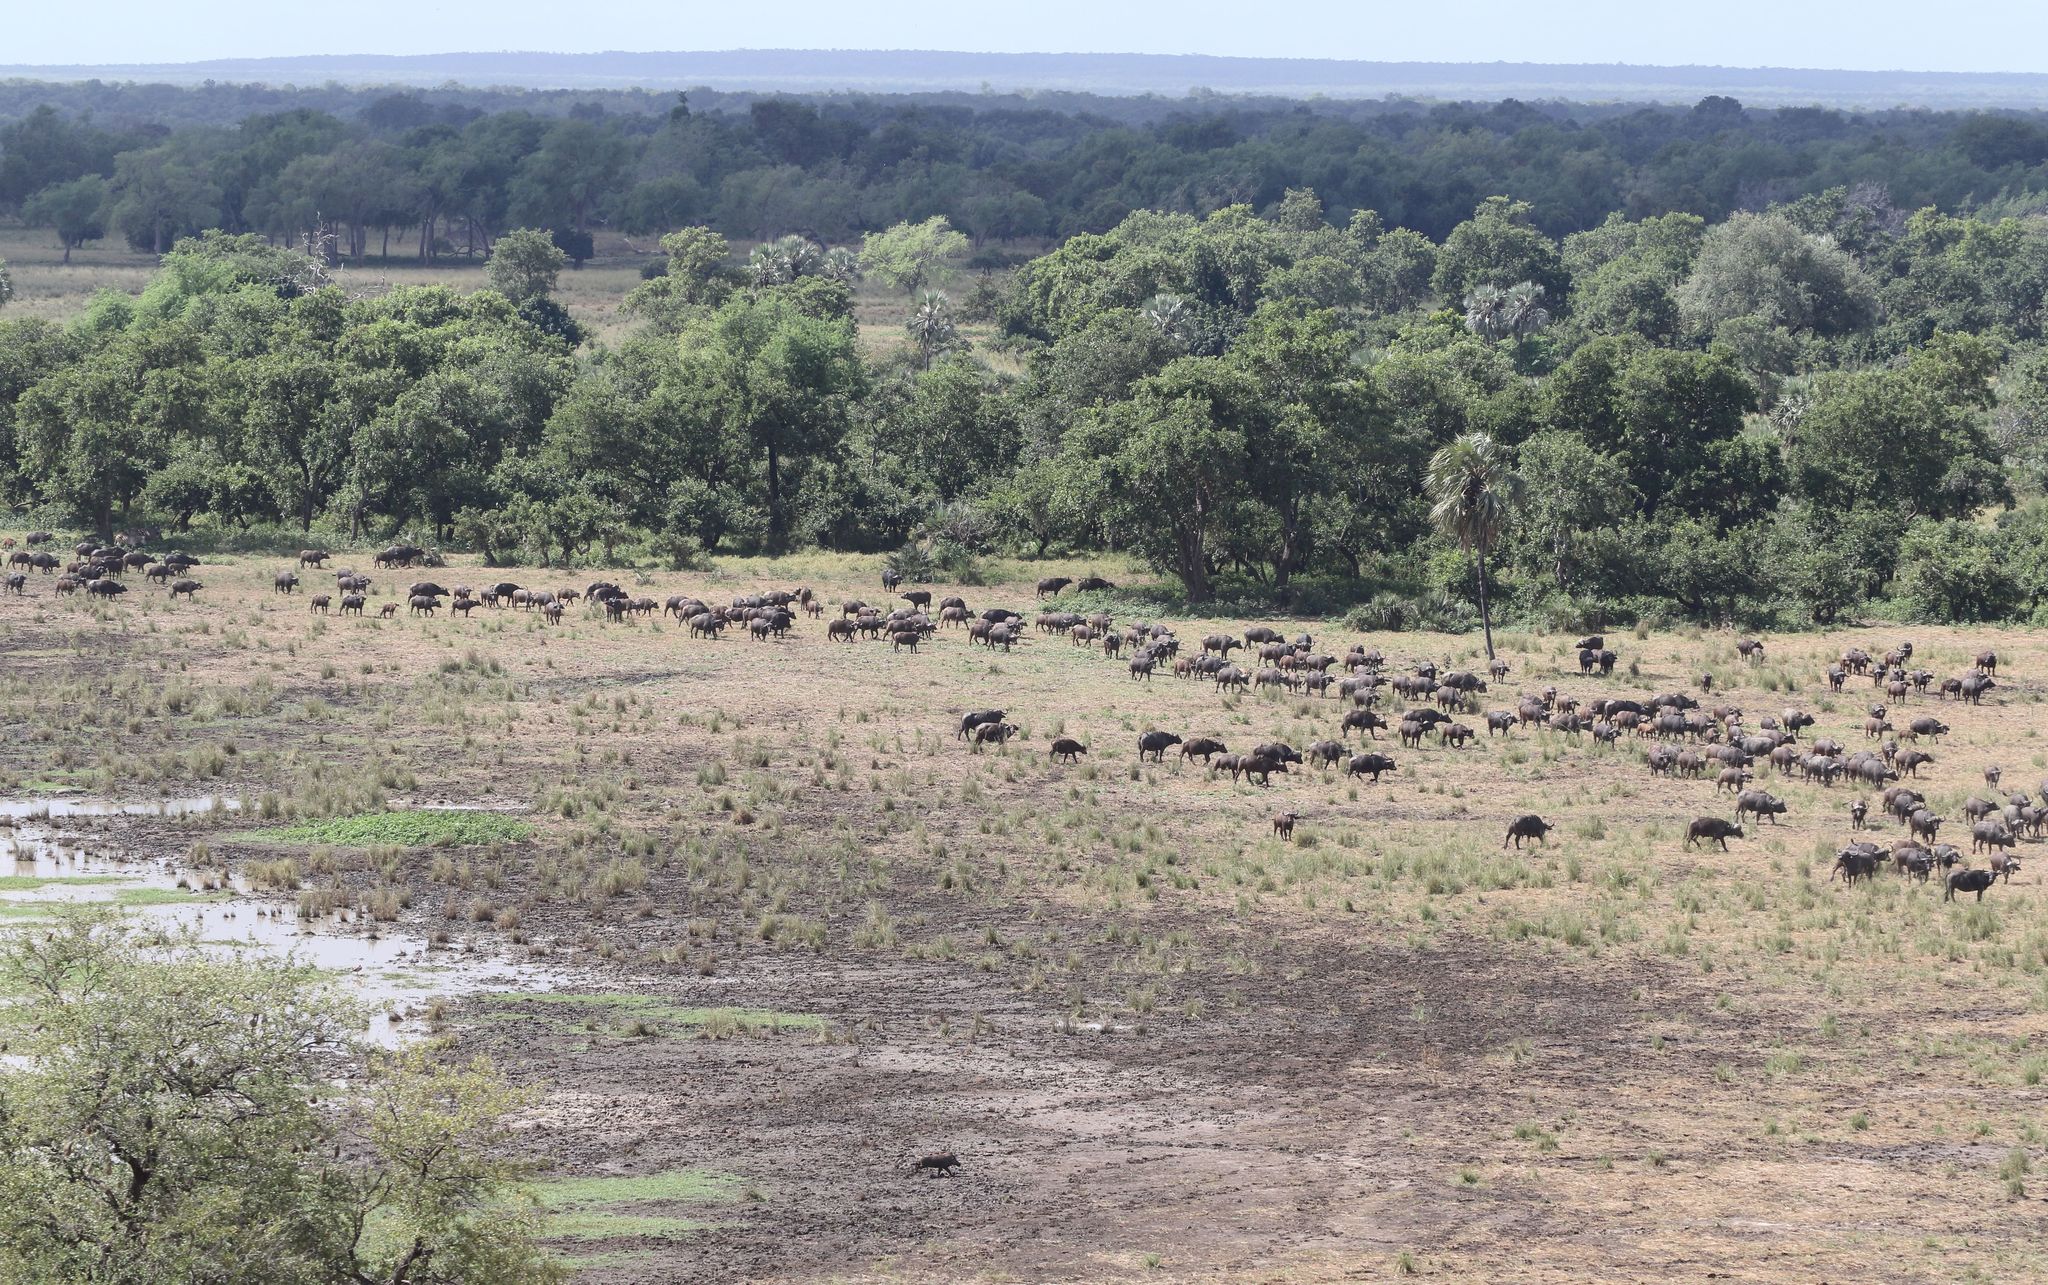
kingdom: Animalia
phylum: Chordata
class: Mammalia
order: Artiodactyla
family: Bovidae
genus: Syncerus
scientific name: Syncerus caffer
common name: African buffalo
